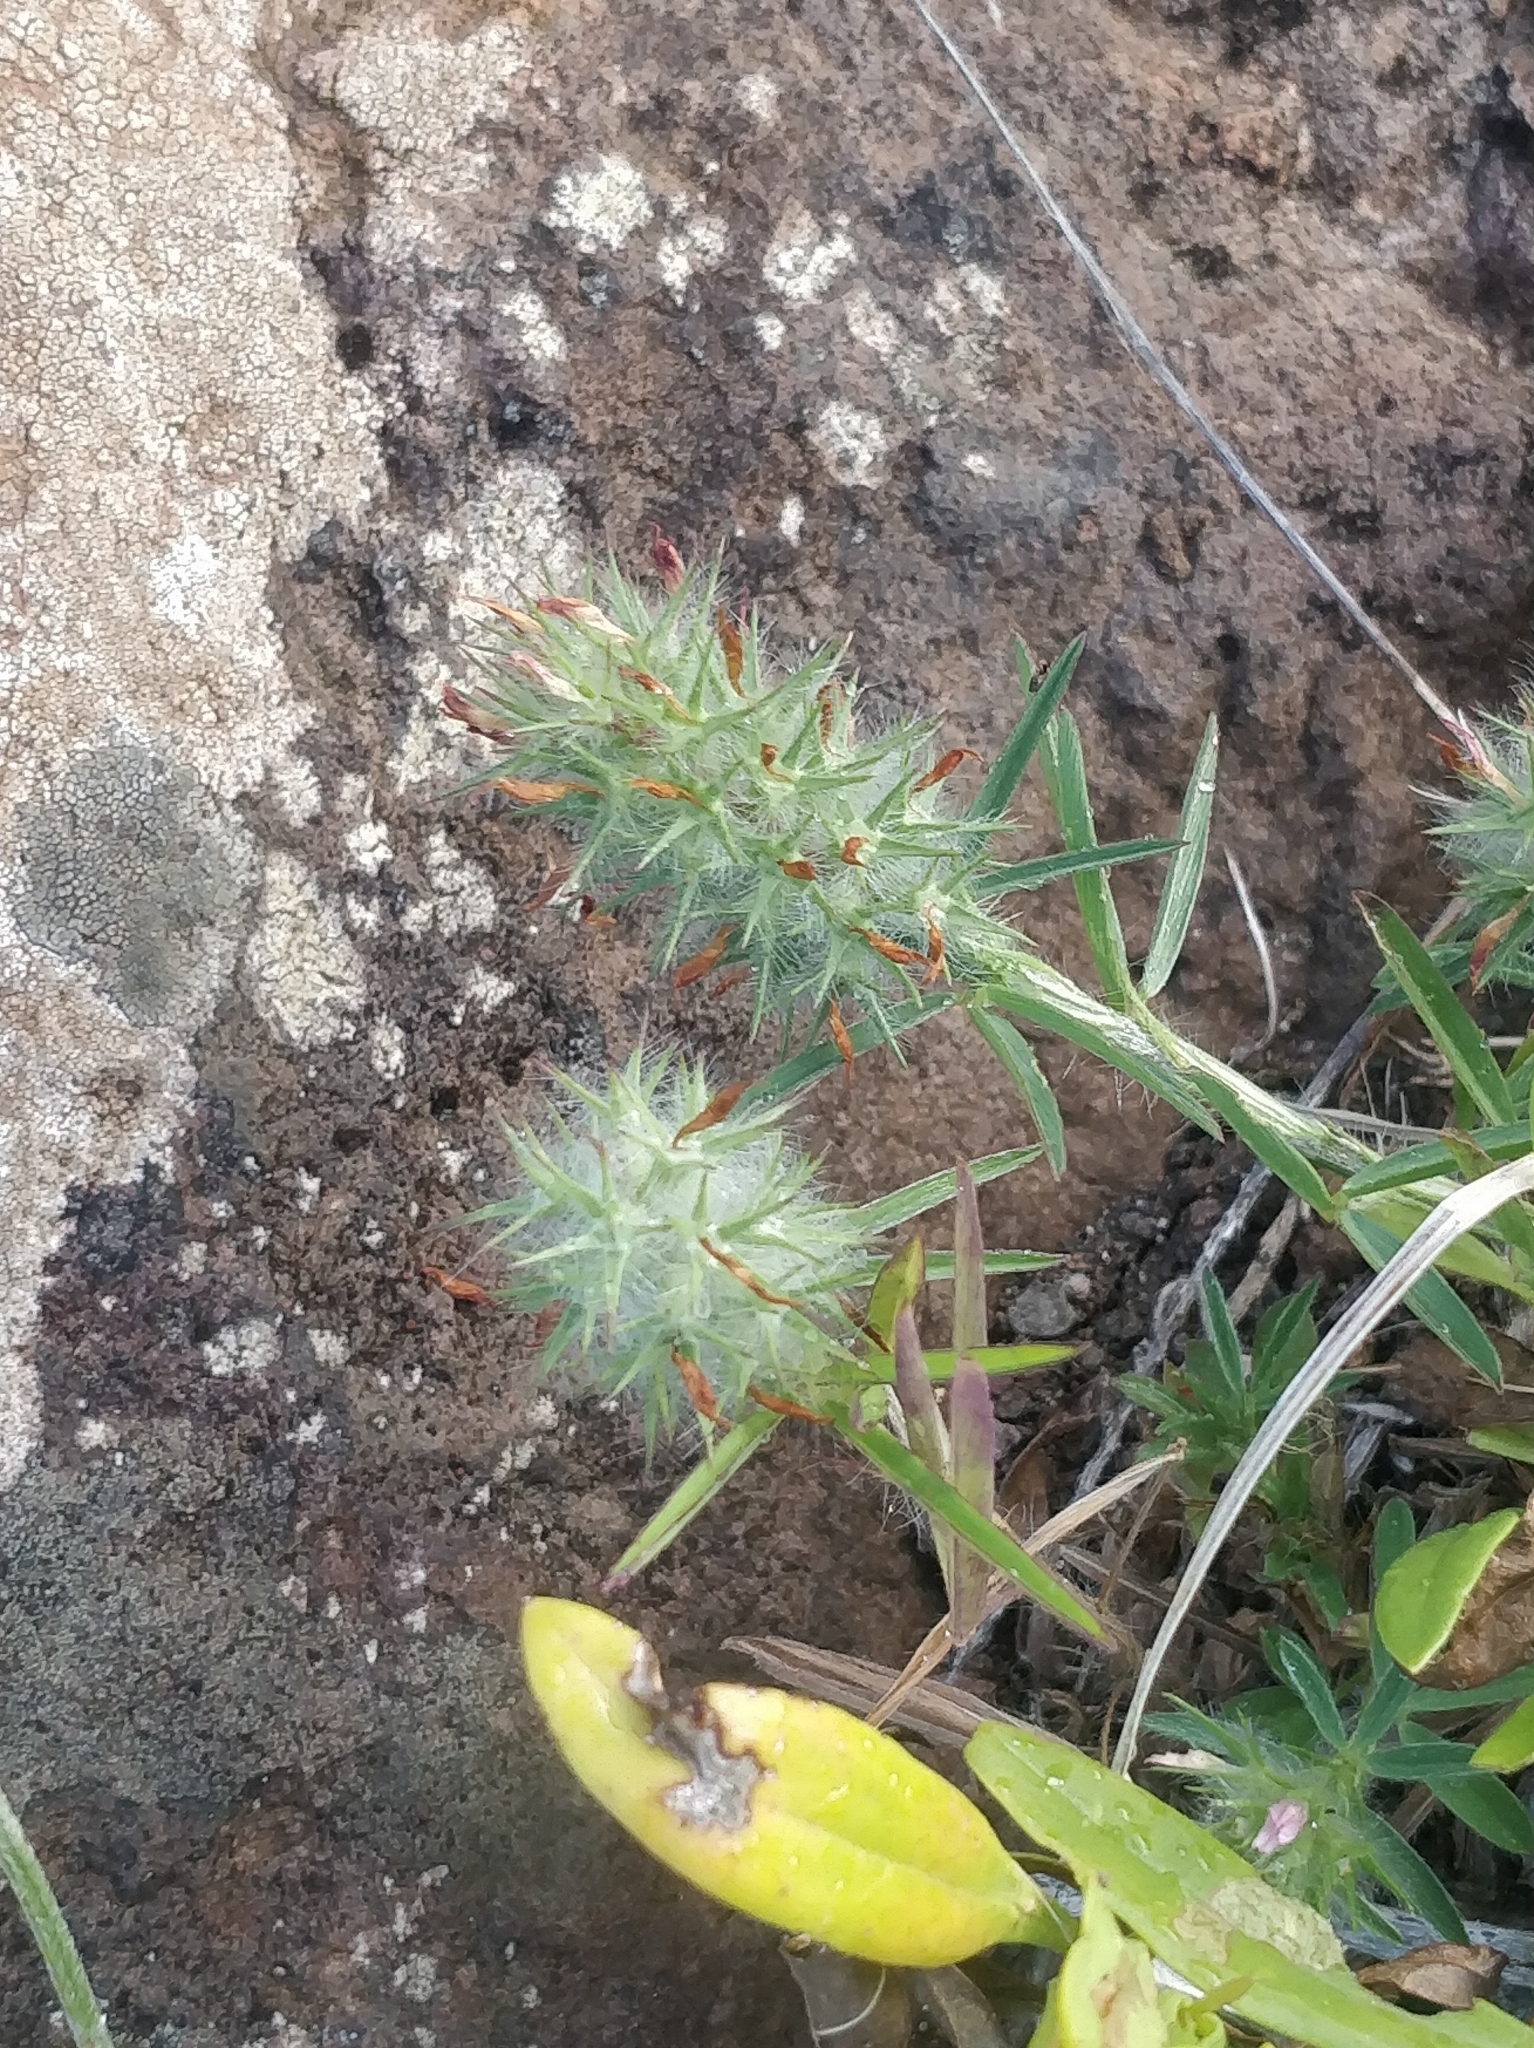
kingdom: Plantae
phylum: Tracheophyta
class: Magnoliopsida
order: Fabales
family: Fabaceae
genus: Trifolium
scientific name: Trifolium angustifolium
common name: Narrow clover
